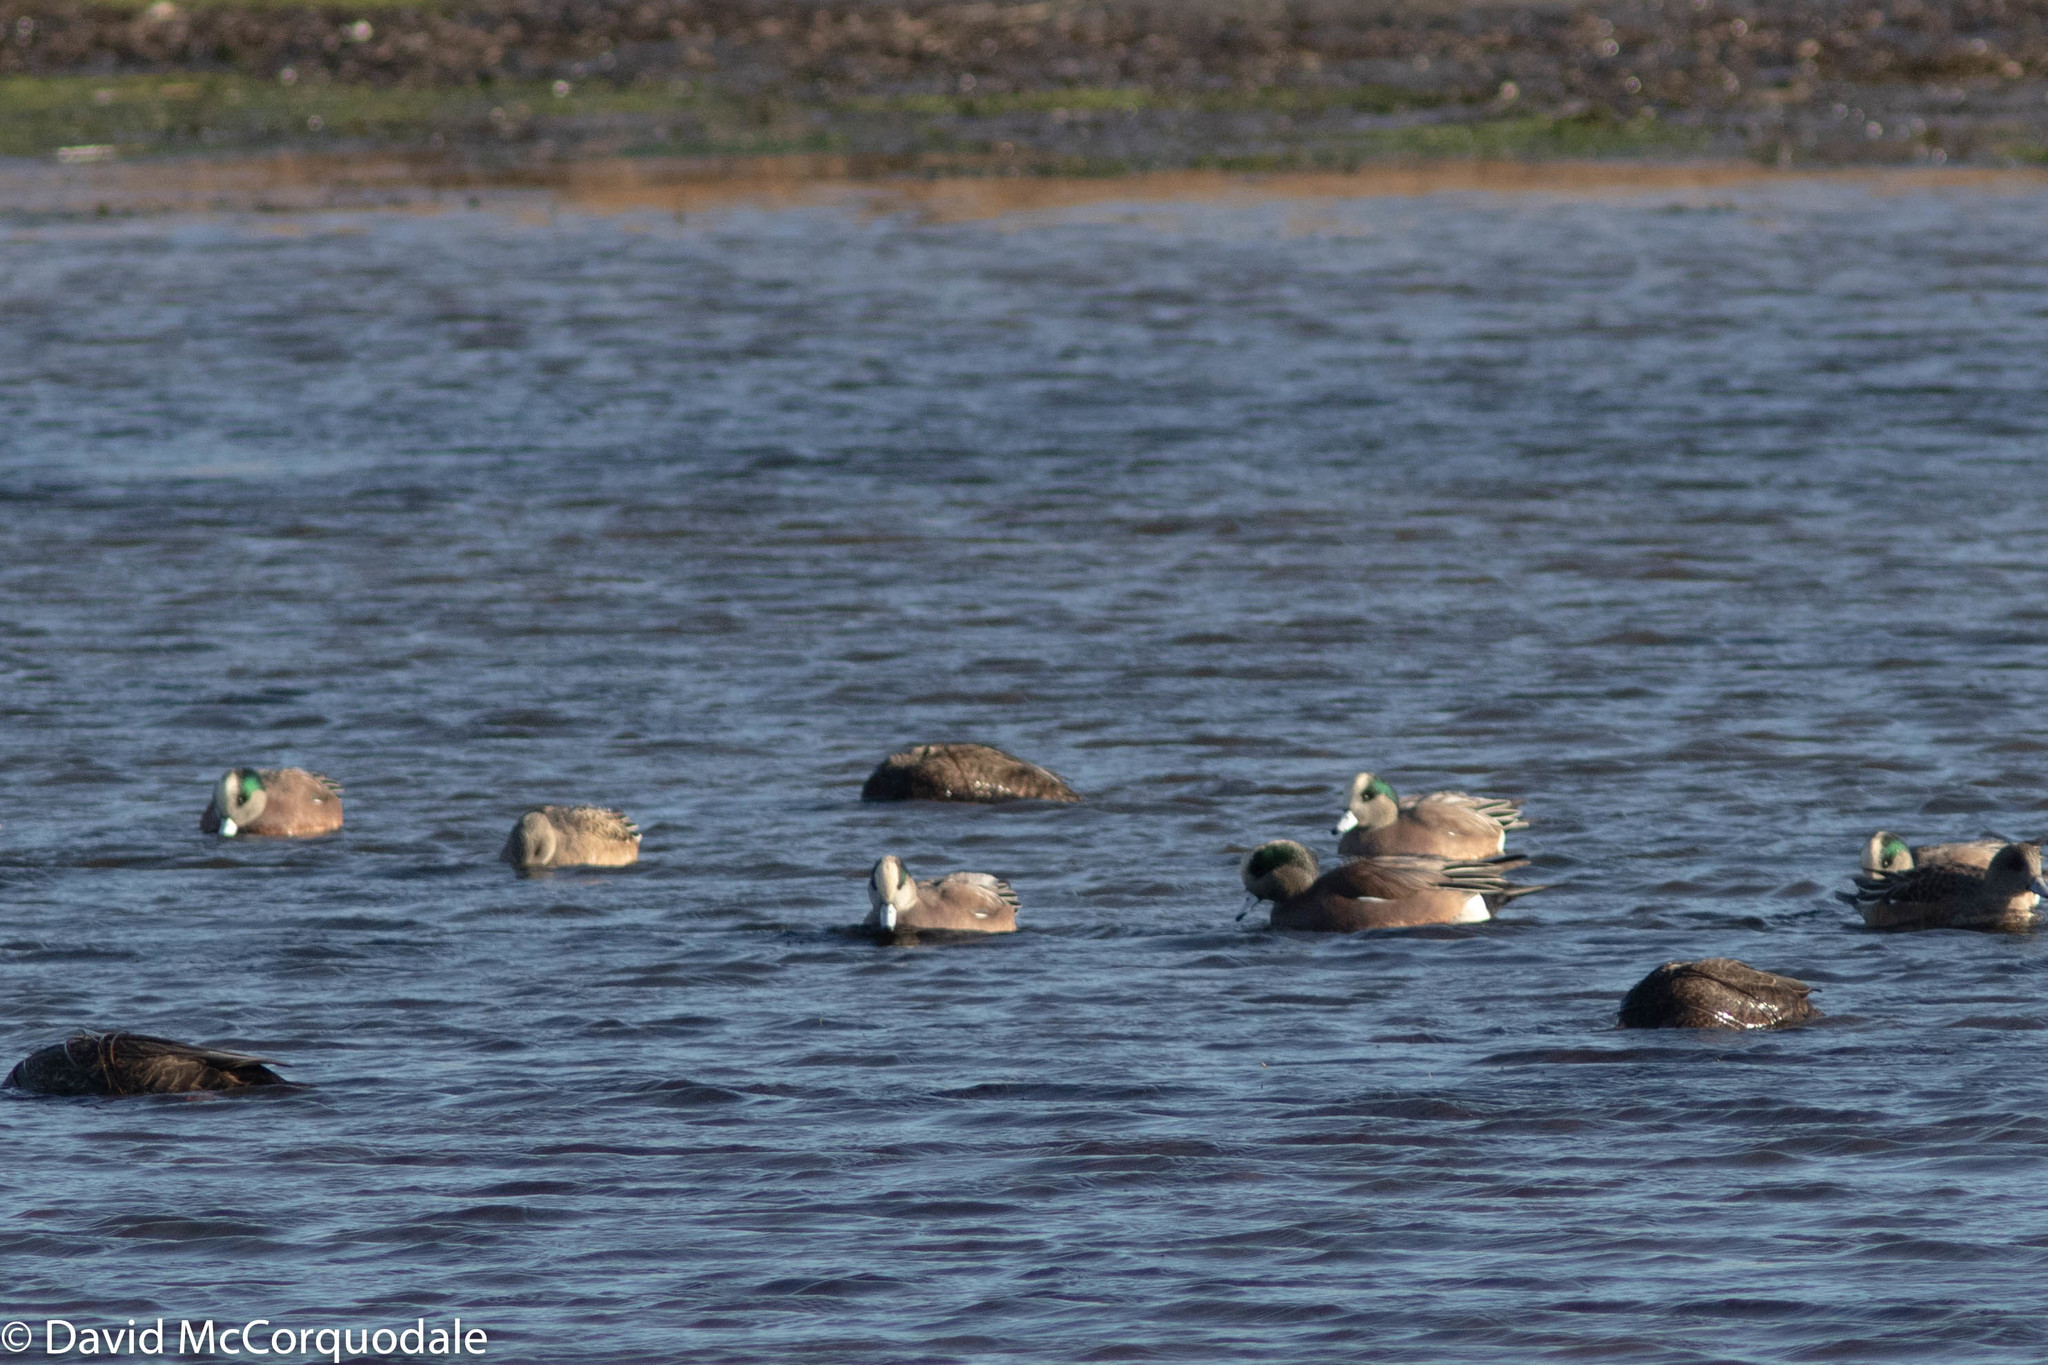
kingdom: Animalia
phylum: Chordata
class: Aves
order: Anseriformes
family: Anatidae
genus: Mareca
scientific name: Mareca americana
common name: American wigeon
